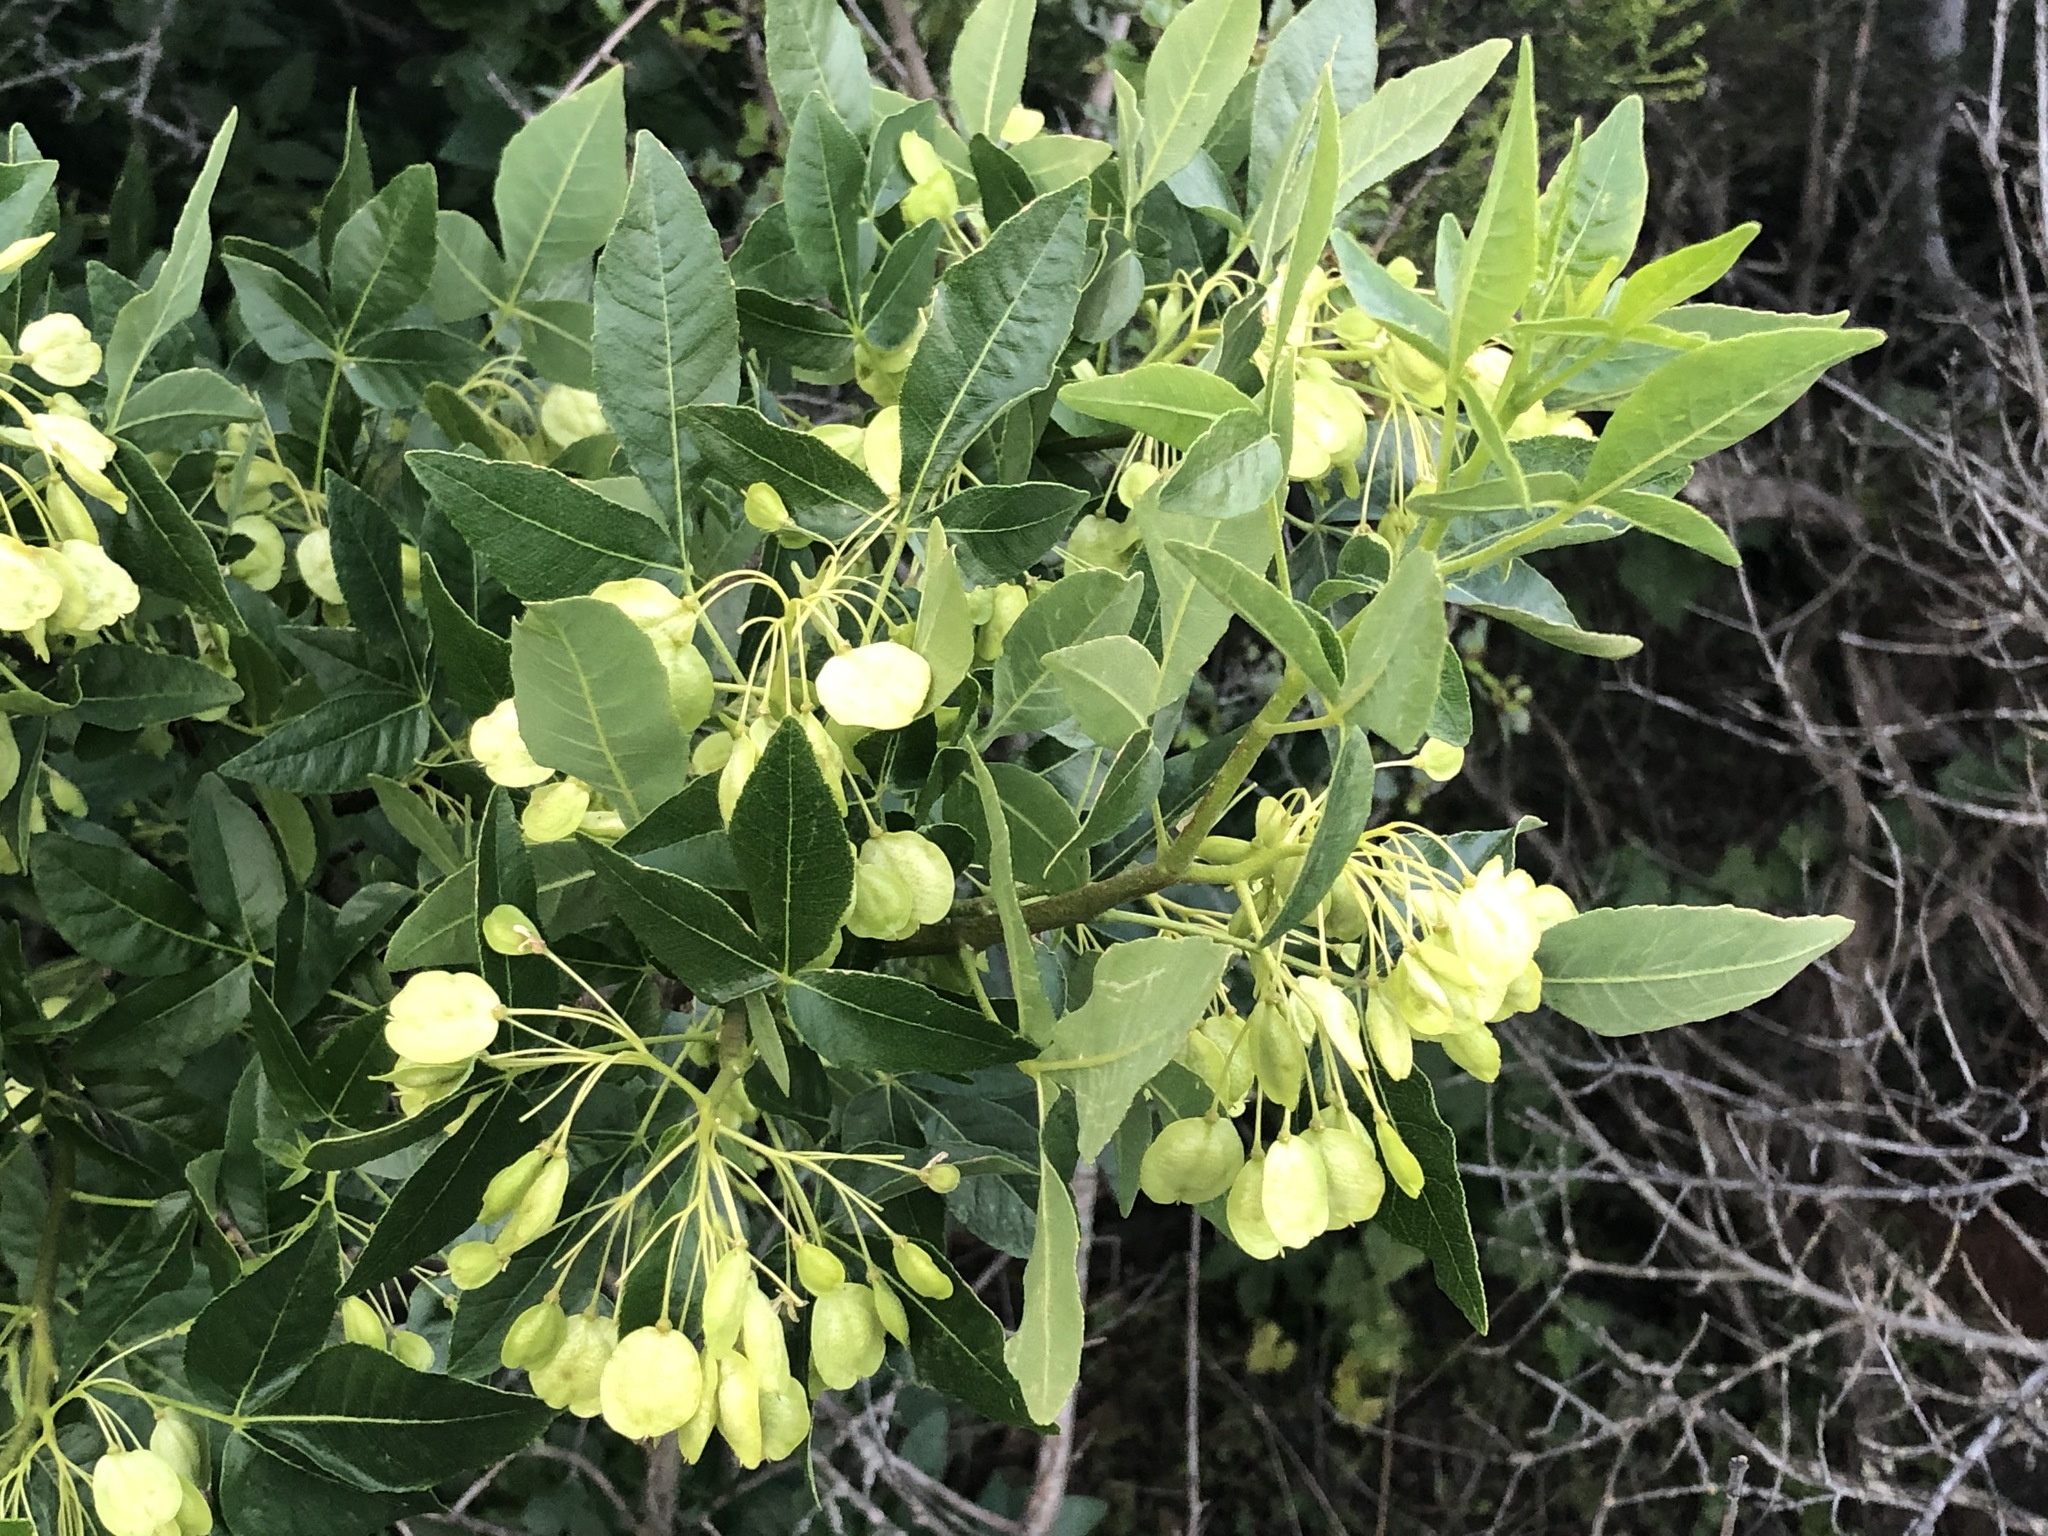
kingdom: Plantae
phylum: Tracheophyta
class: Magnoliopsida
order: Sapindales
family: Rutaceae
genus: Ptelea
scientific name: Ptelea crenulata
